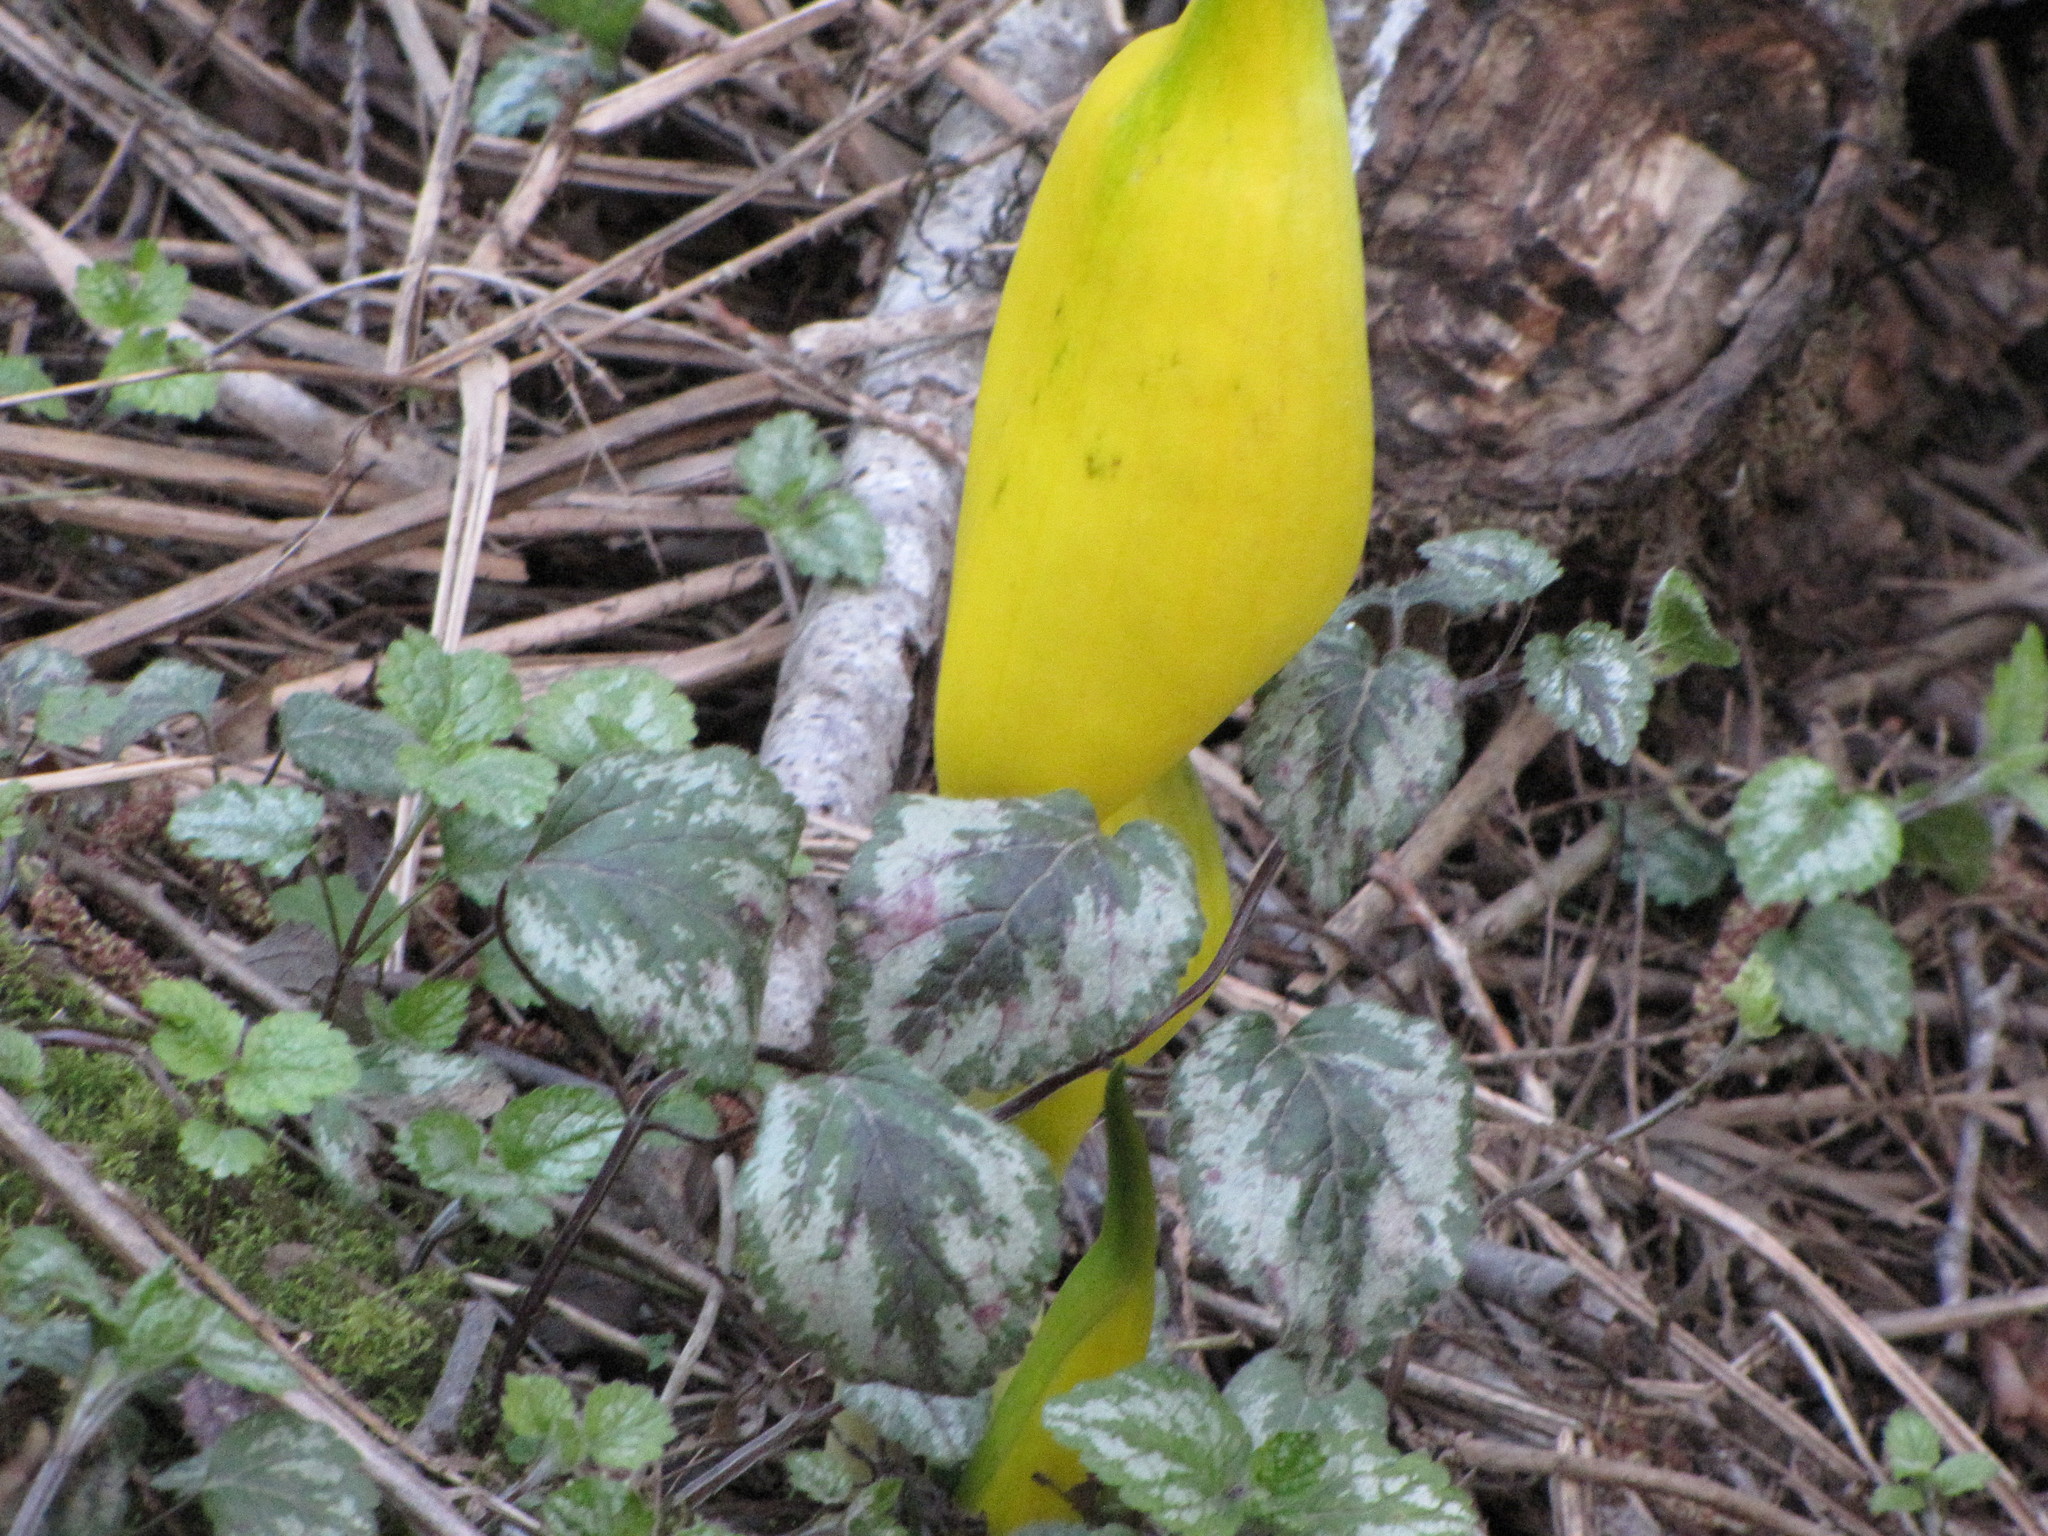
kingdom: Plantae
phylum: Tracheophyta
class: Magnoliopsida
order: Lamiales
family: Lamiaceae
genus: Lamium
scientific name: Lamium galeobdolon
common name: Yellow archangel
